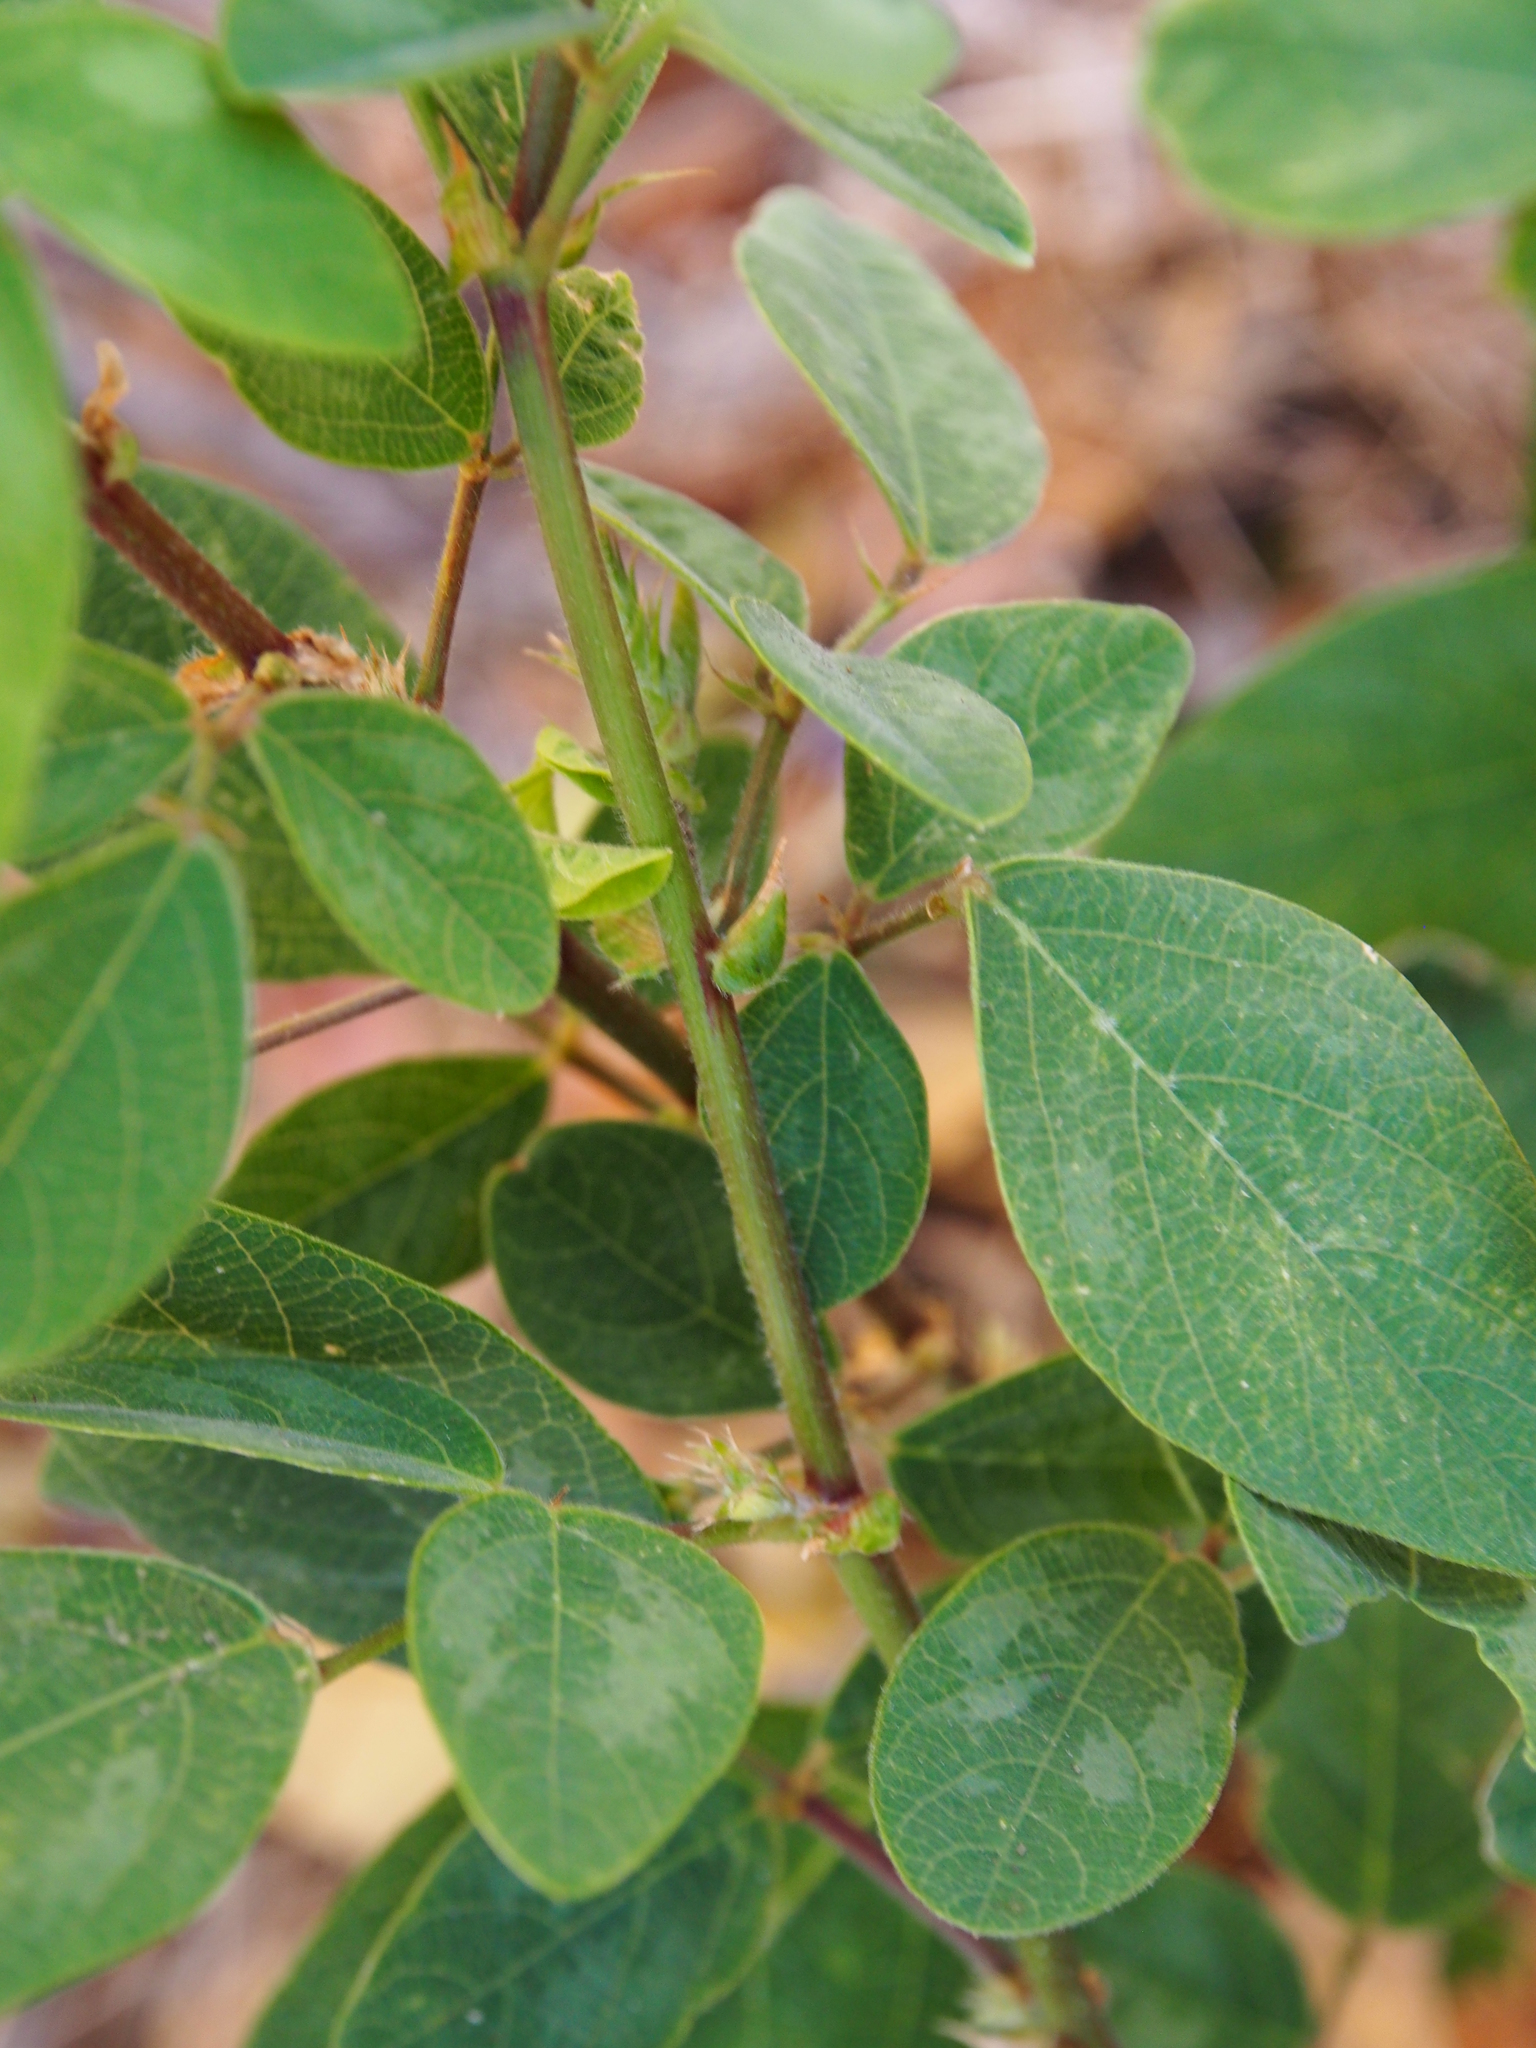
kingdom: Plantae
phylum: Tracheophyta
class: Magnoliopsida
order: Fabales
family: Fabaceae
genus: Desmodium
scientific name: Desmodium axillare
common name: Wire with
